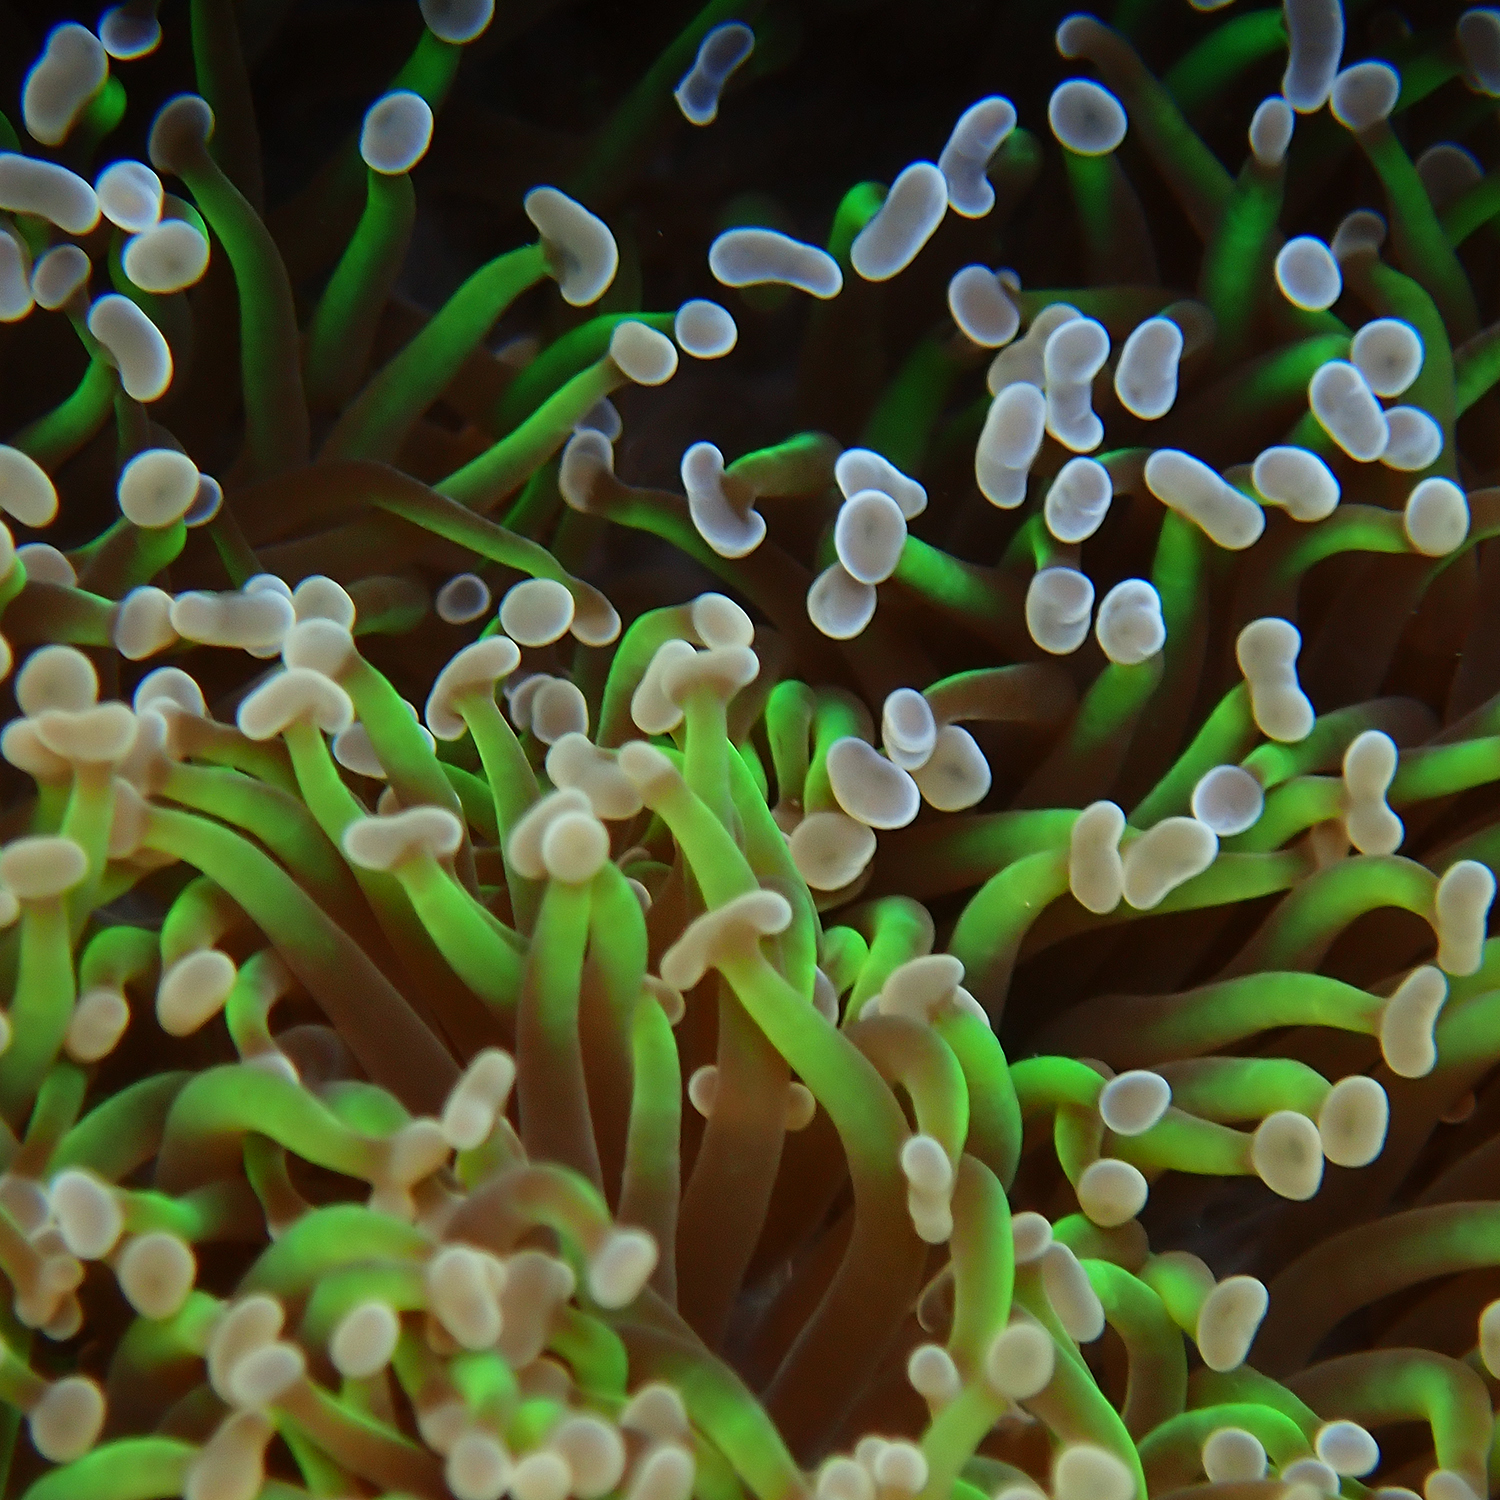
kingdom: Animalia
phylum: Cnidaria
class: Anthozoa
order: Scleractinia
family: Euphylliidae
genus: Fimbriaphyllia
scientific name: Fimbriaphyllia ancora
